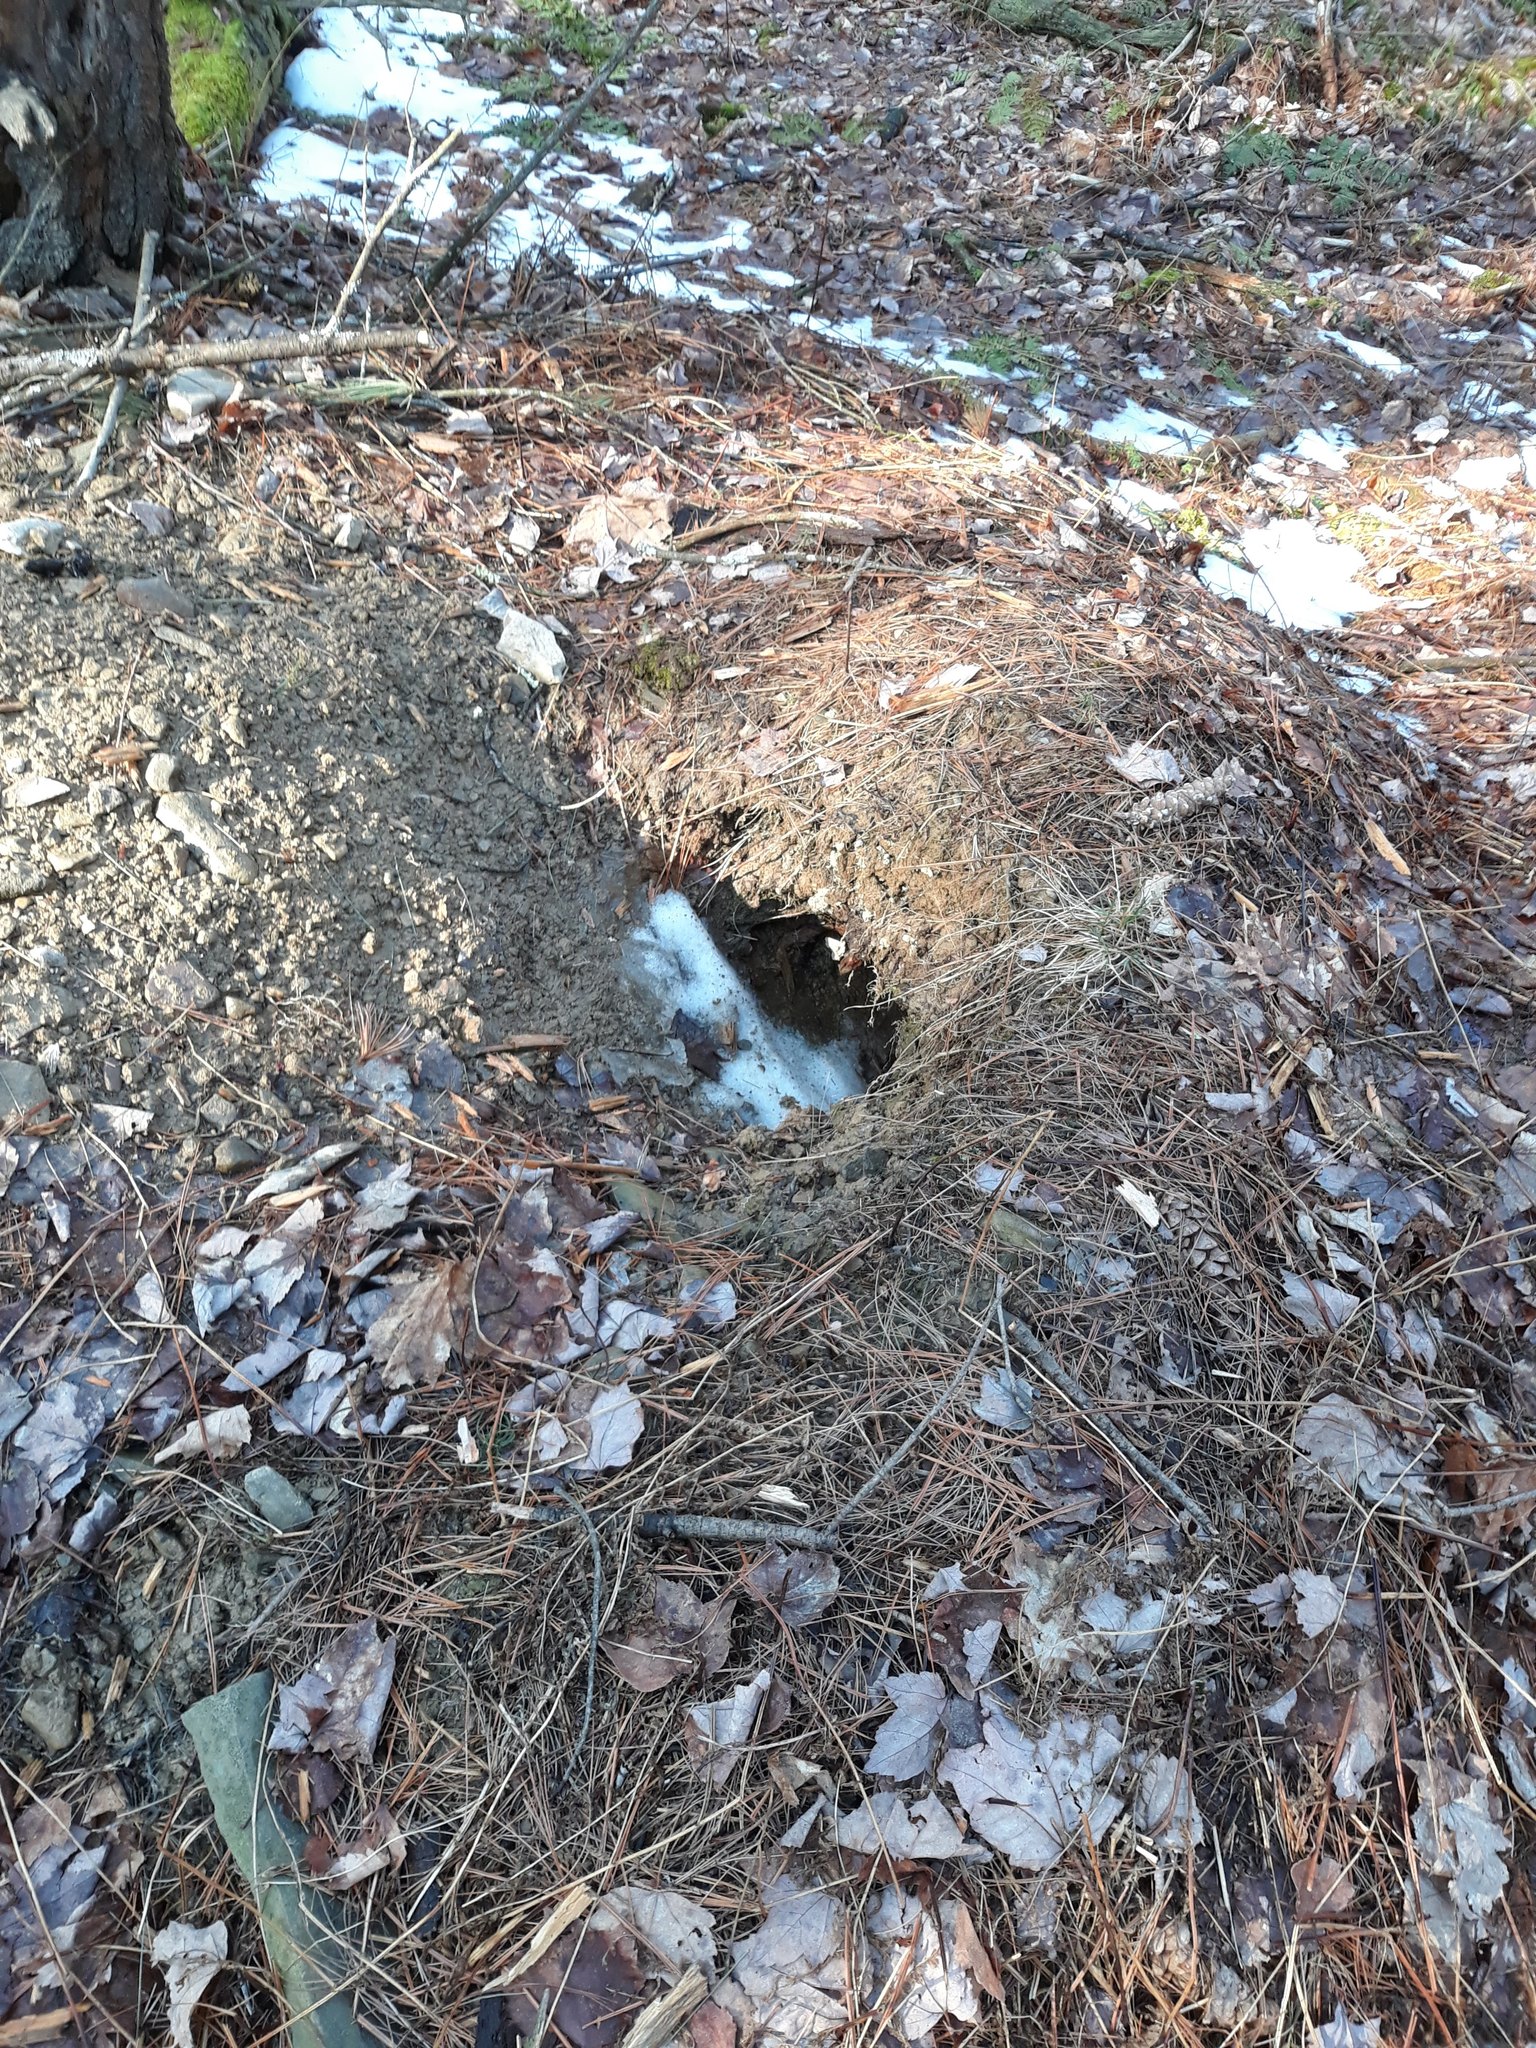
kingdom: Animalia
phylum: Chordata
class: Mammalia
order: Artiodactyla
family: Cervidae
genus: Odocoileus
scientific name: Odocoileus virginianus
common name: White-tailed deer
